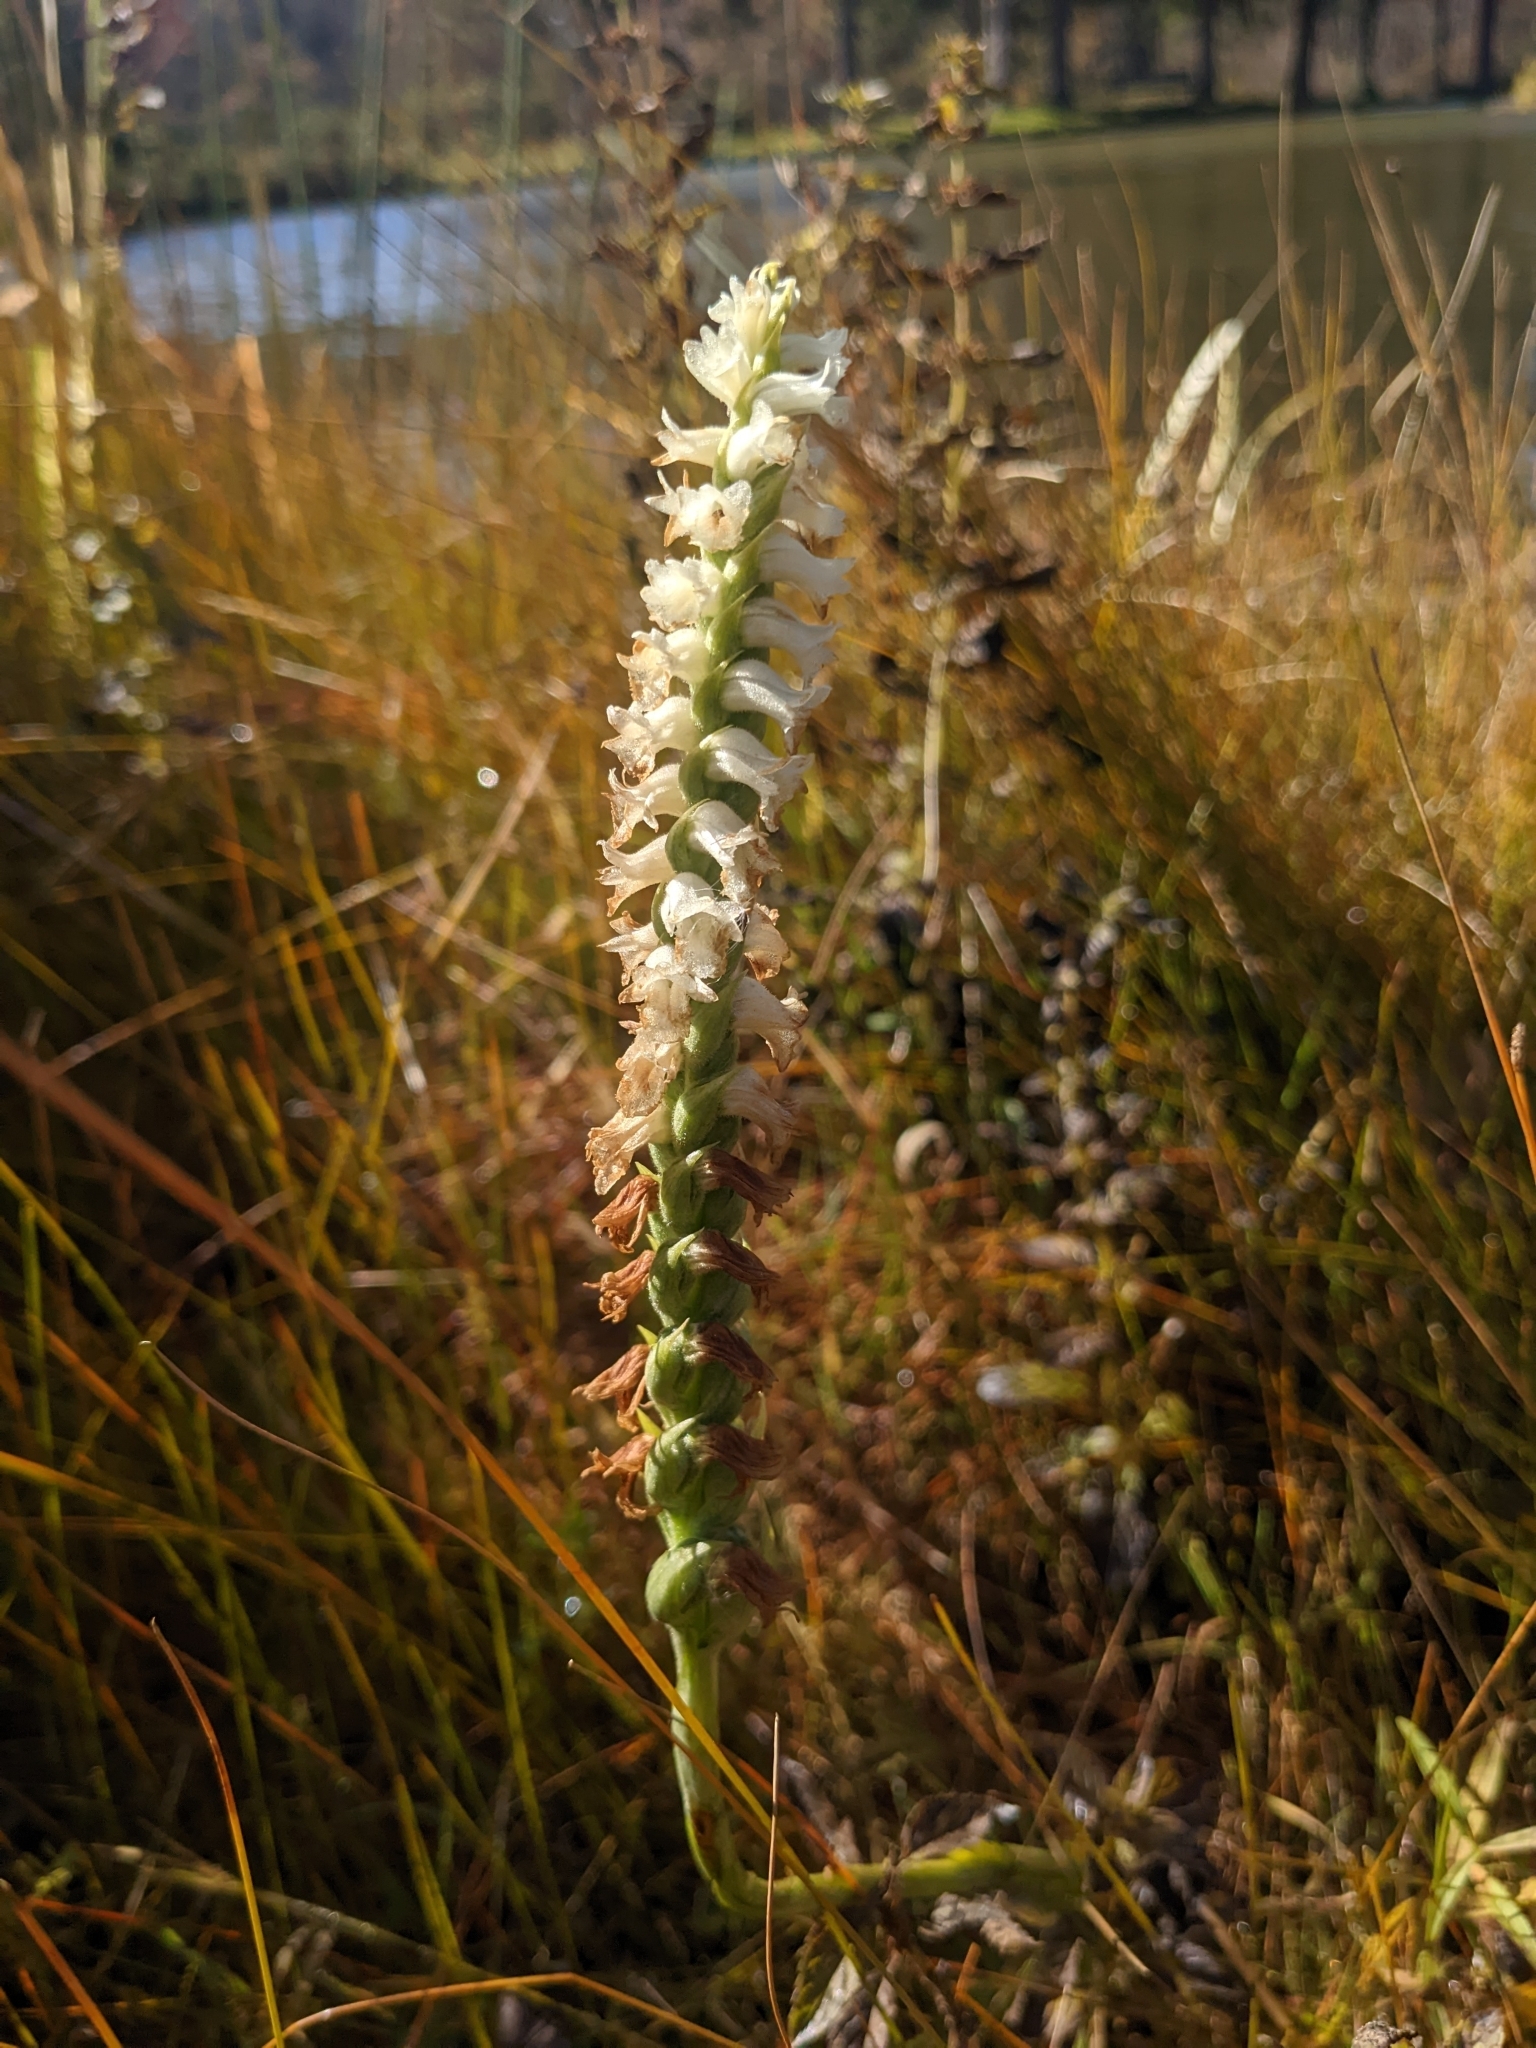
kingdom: Plantae
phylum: Tracheophyta
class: Liliopsida
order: Asparagales
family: Orchidaceae
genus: Spiranthes
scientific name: Spiranthes arcisepala
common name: Appalachian ladies'-tresses
